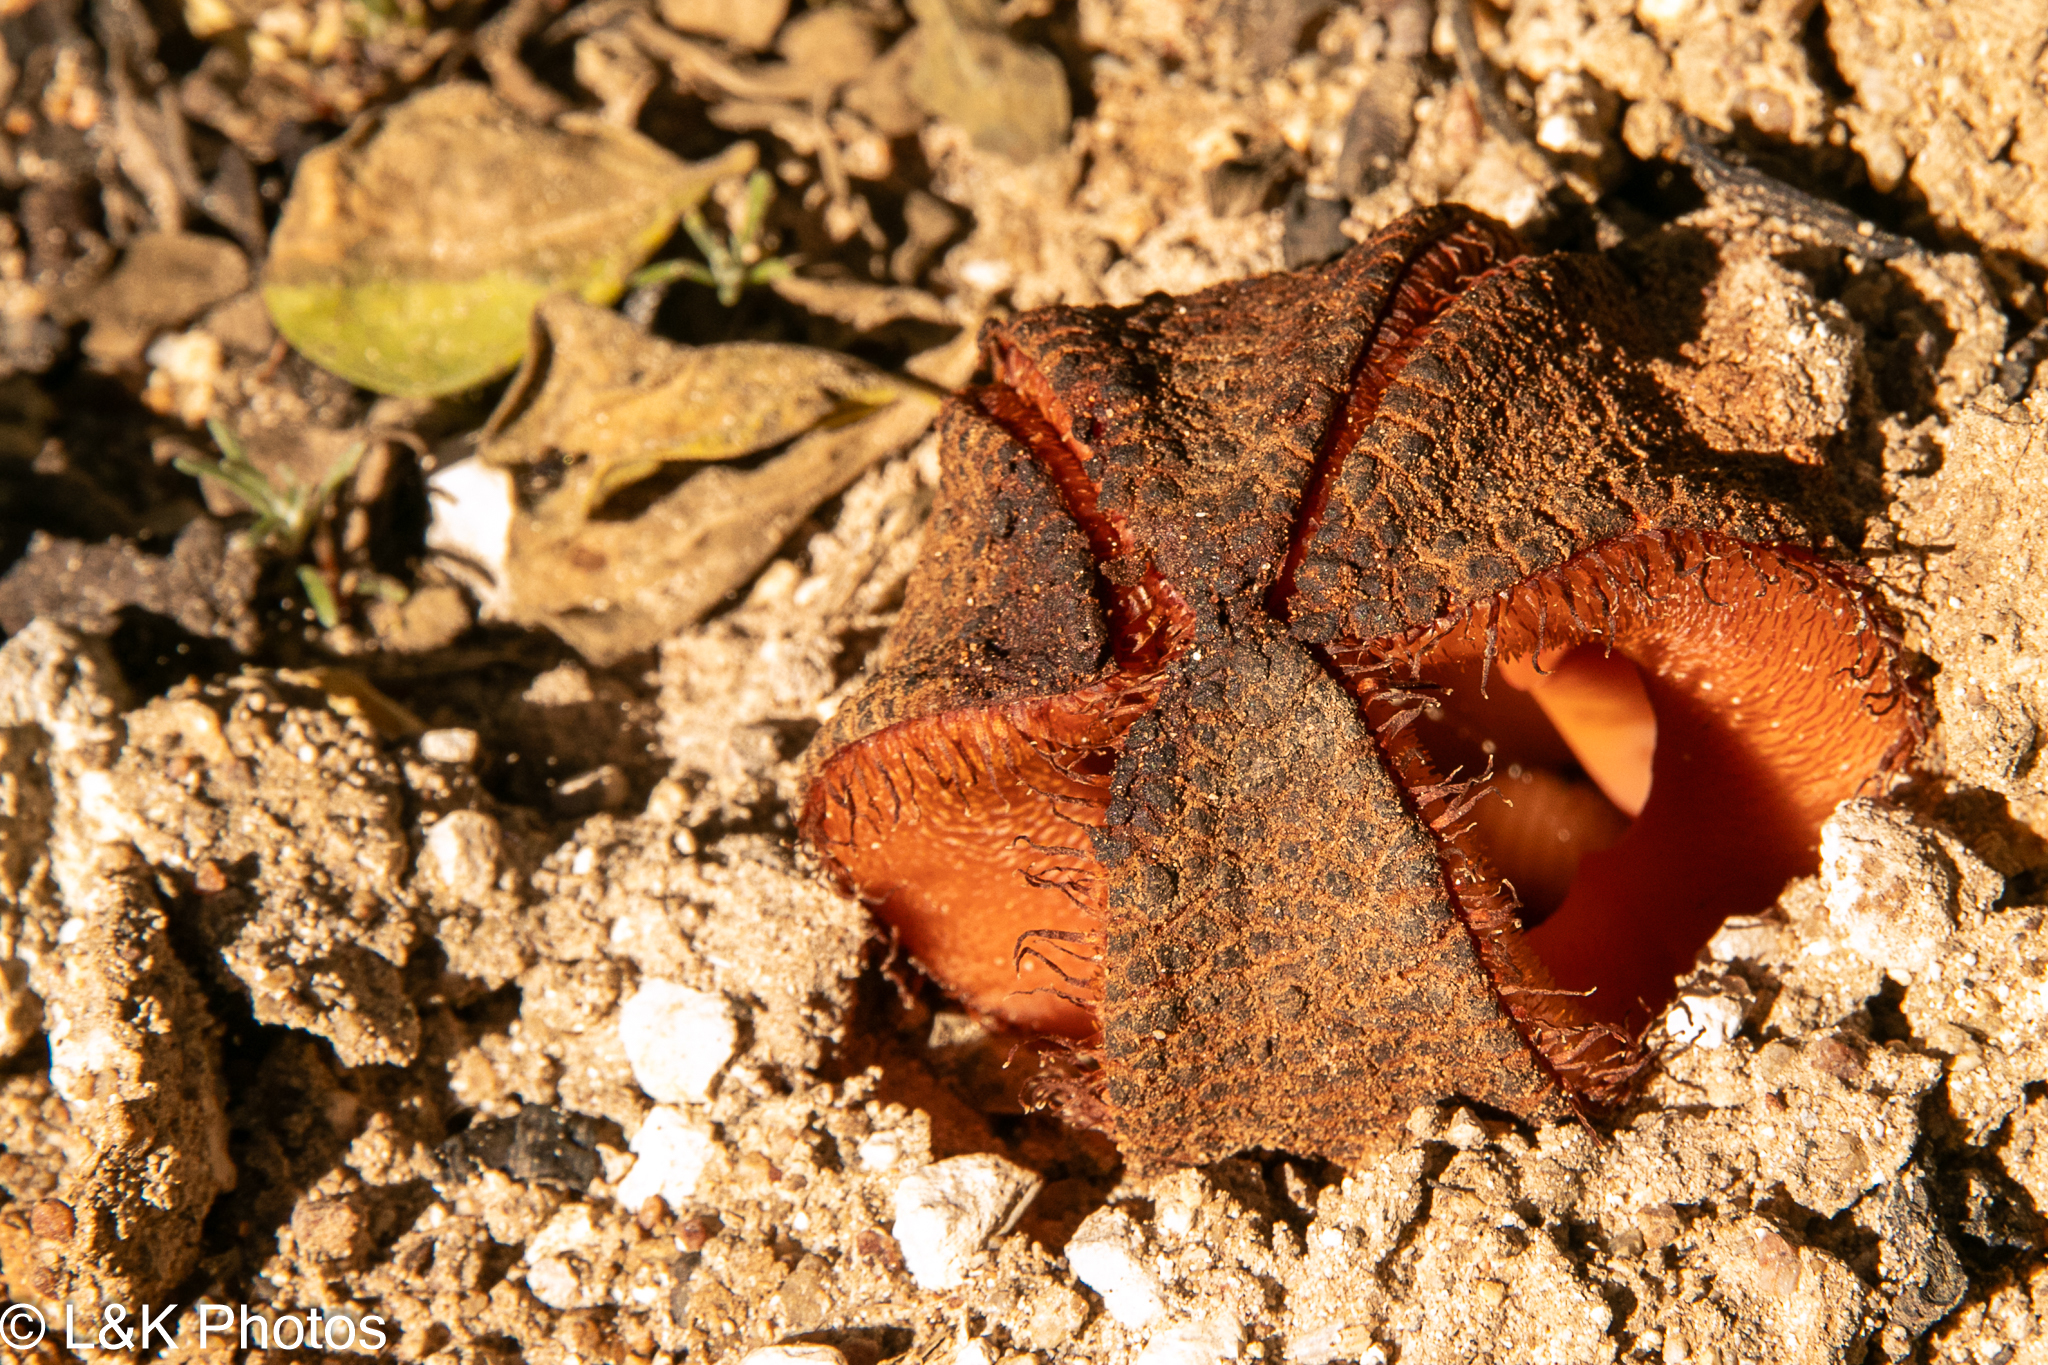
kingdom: Plantae
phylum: Tracheophyta
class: Magnoliopsida
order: Piperales
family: Hydnoraceae
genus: Hydnora
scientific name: Hydnora africana
